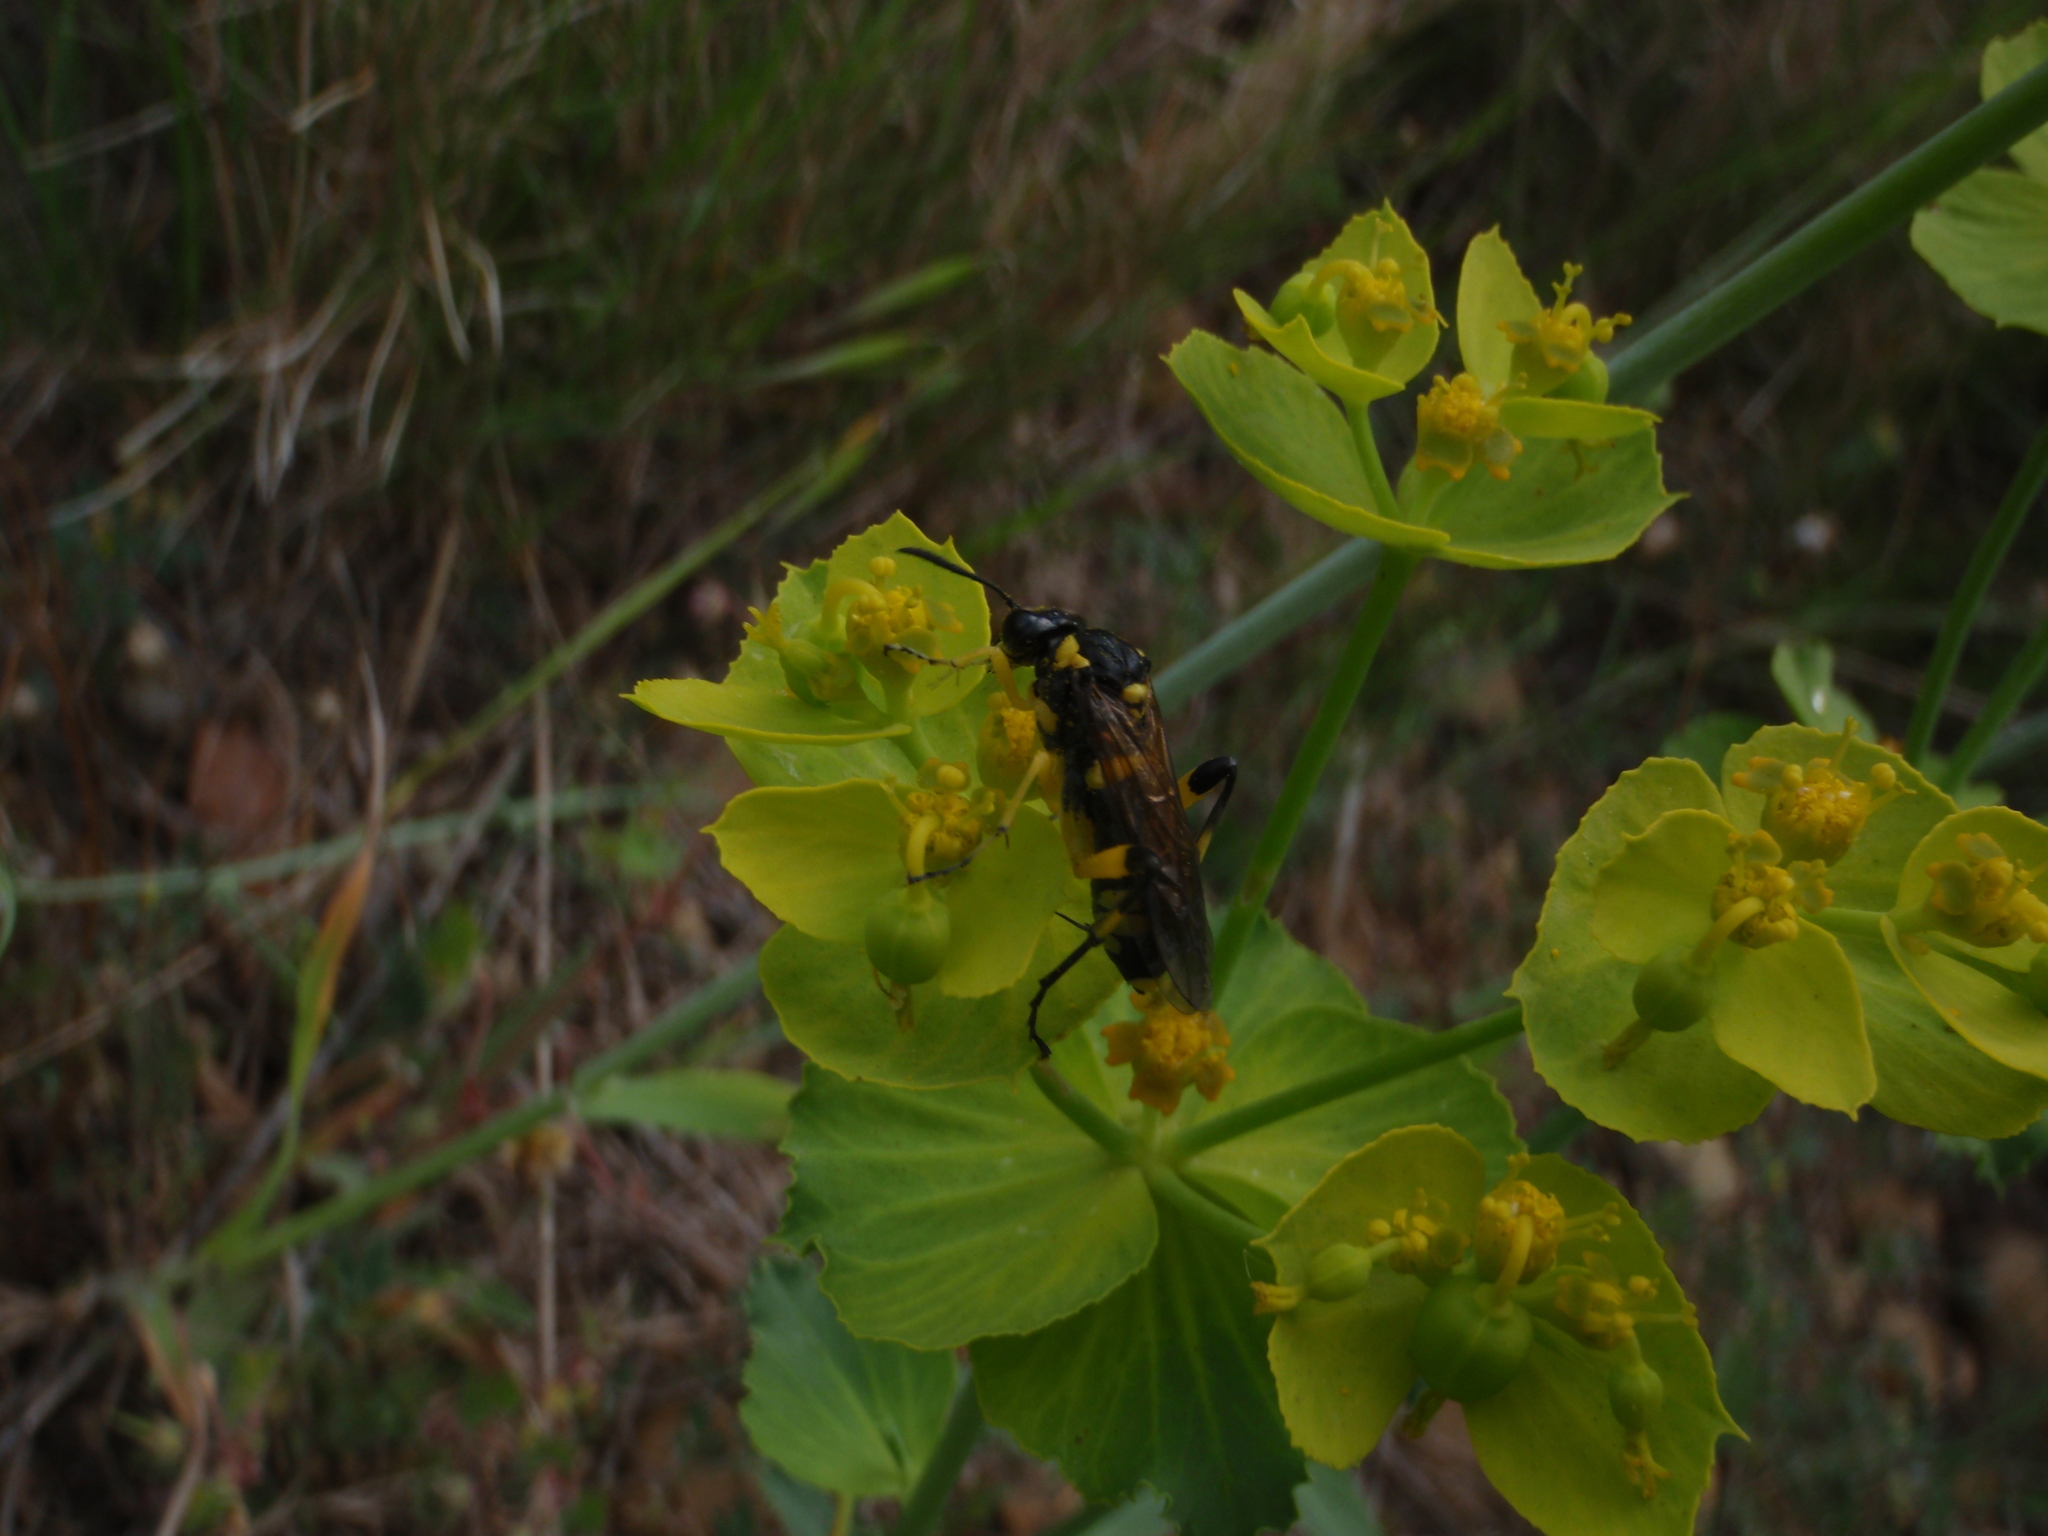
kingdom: Animalia
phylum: Arthropoda
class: Insecta
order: Hymenoptera
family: Tenthredinidae
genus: Macrophya
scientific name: Macrophya montana
